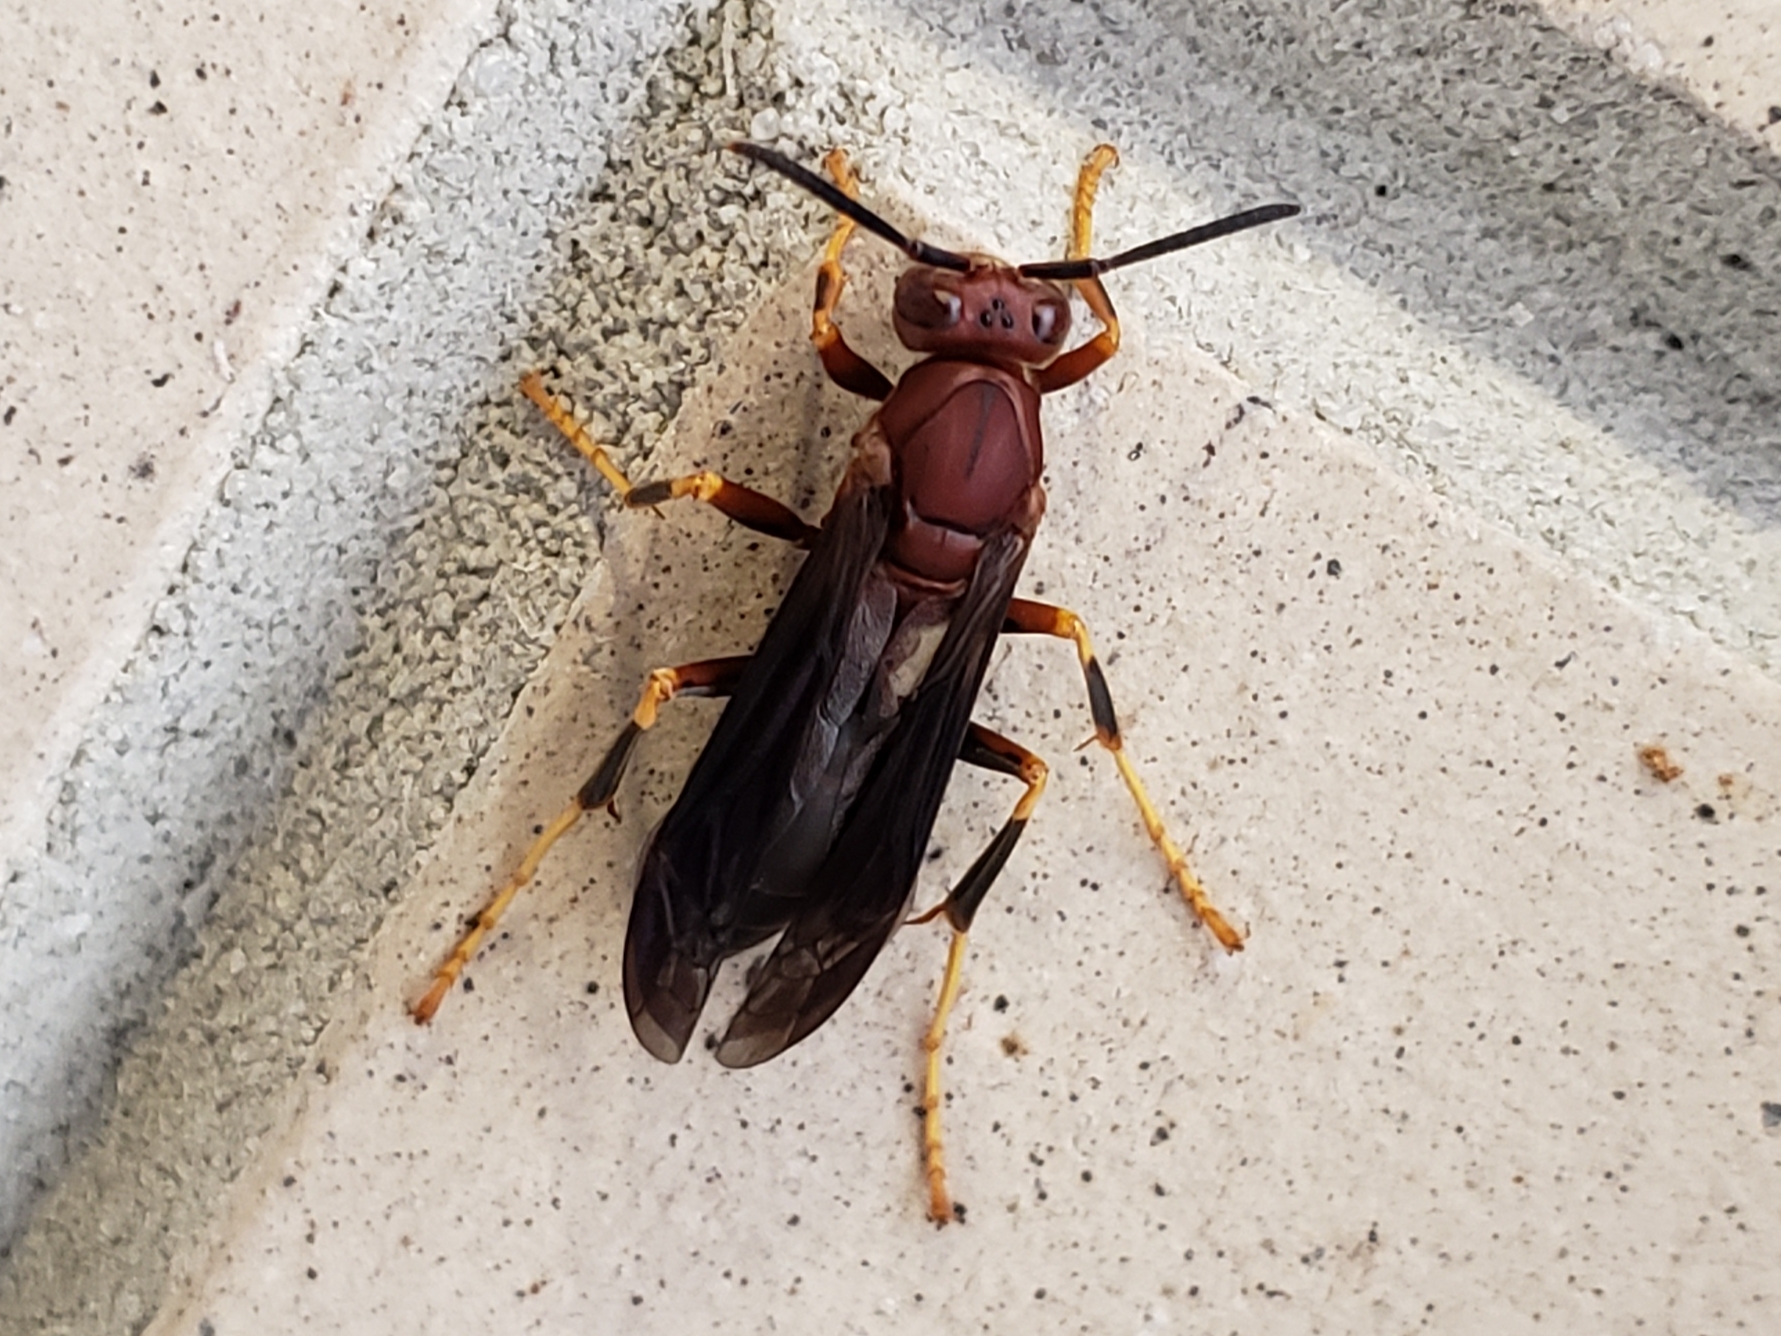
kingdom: Animalia
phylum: Arthropoda
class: Insecta
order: Hymenoptera
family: Eumenidae
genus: Polistes
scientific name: Polistes metricus
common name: Metric paper wasp
